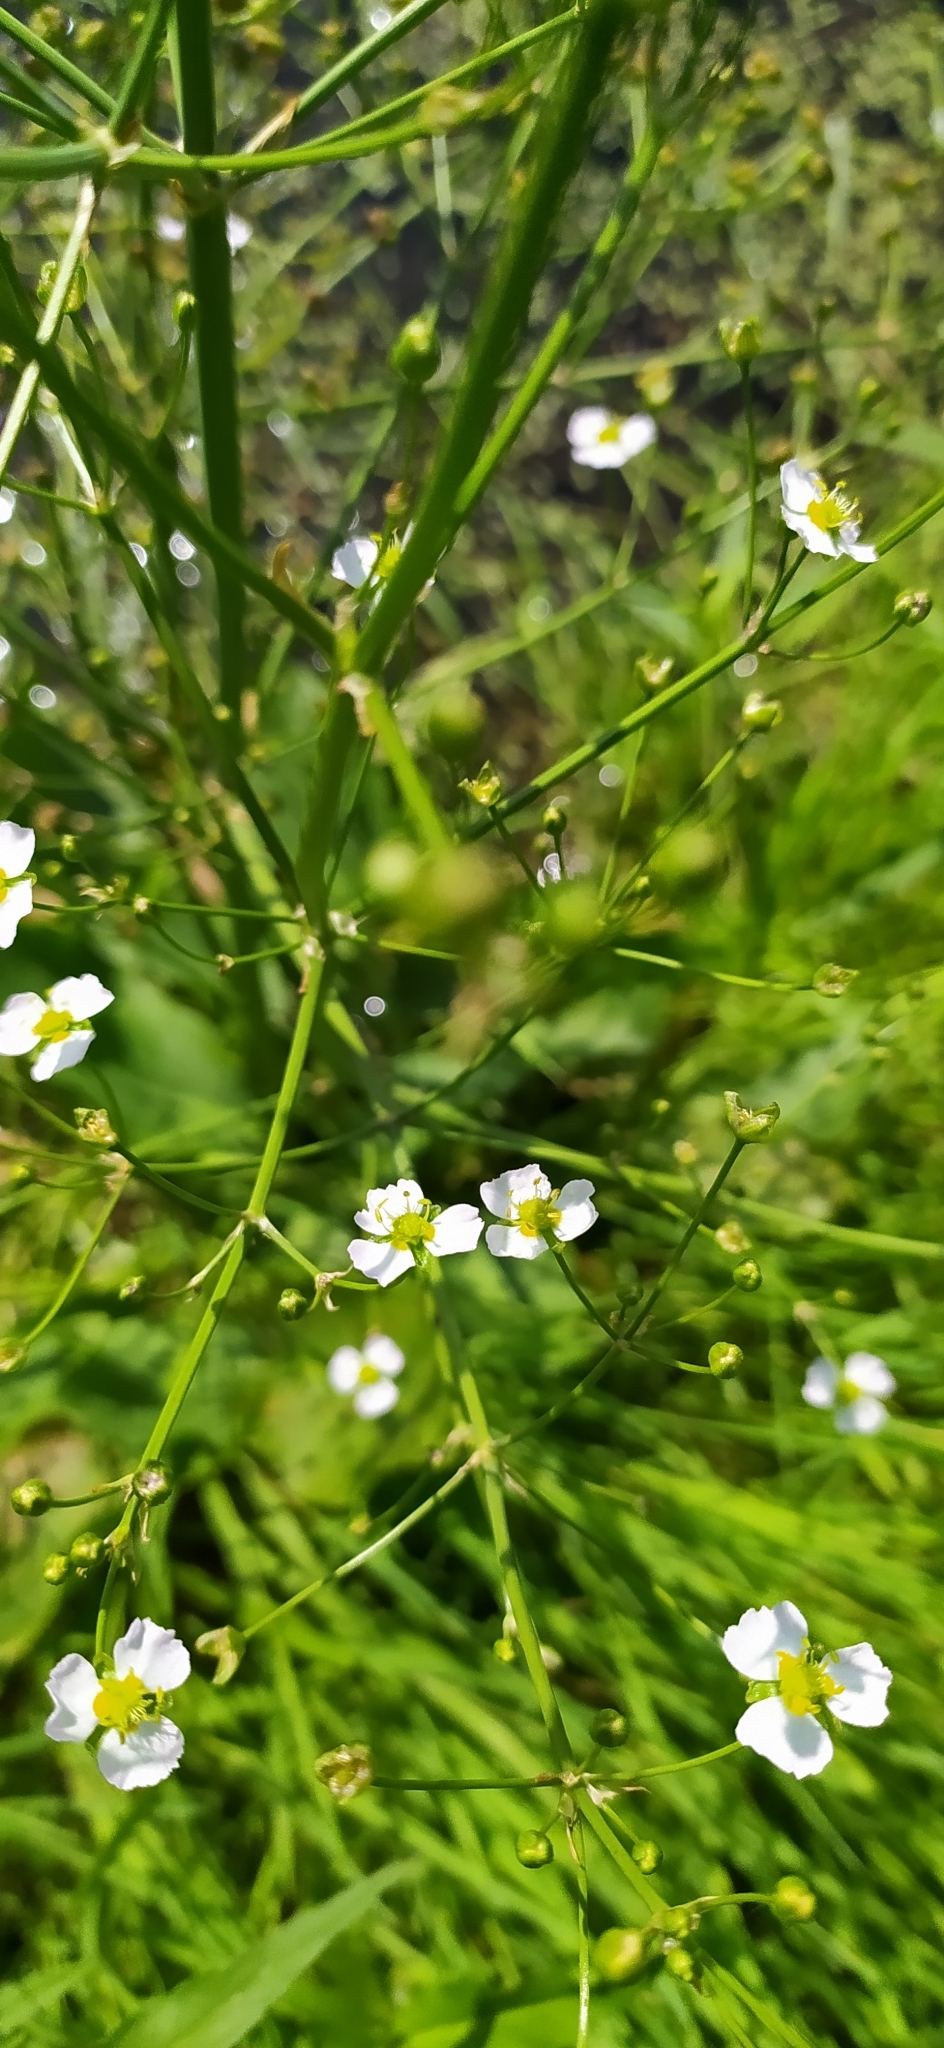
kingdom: Plantae
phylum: Tracheophyta
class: Liliopsida
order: Alismatales
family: Alismataceae
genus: Alisma
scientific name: Alisma plantago-aquatica
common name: Water-plantain
